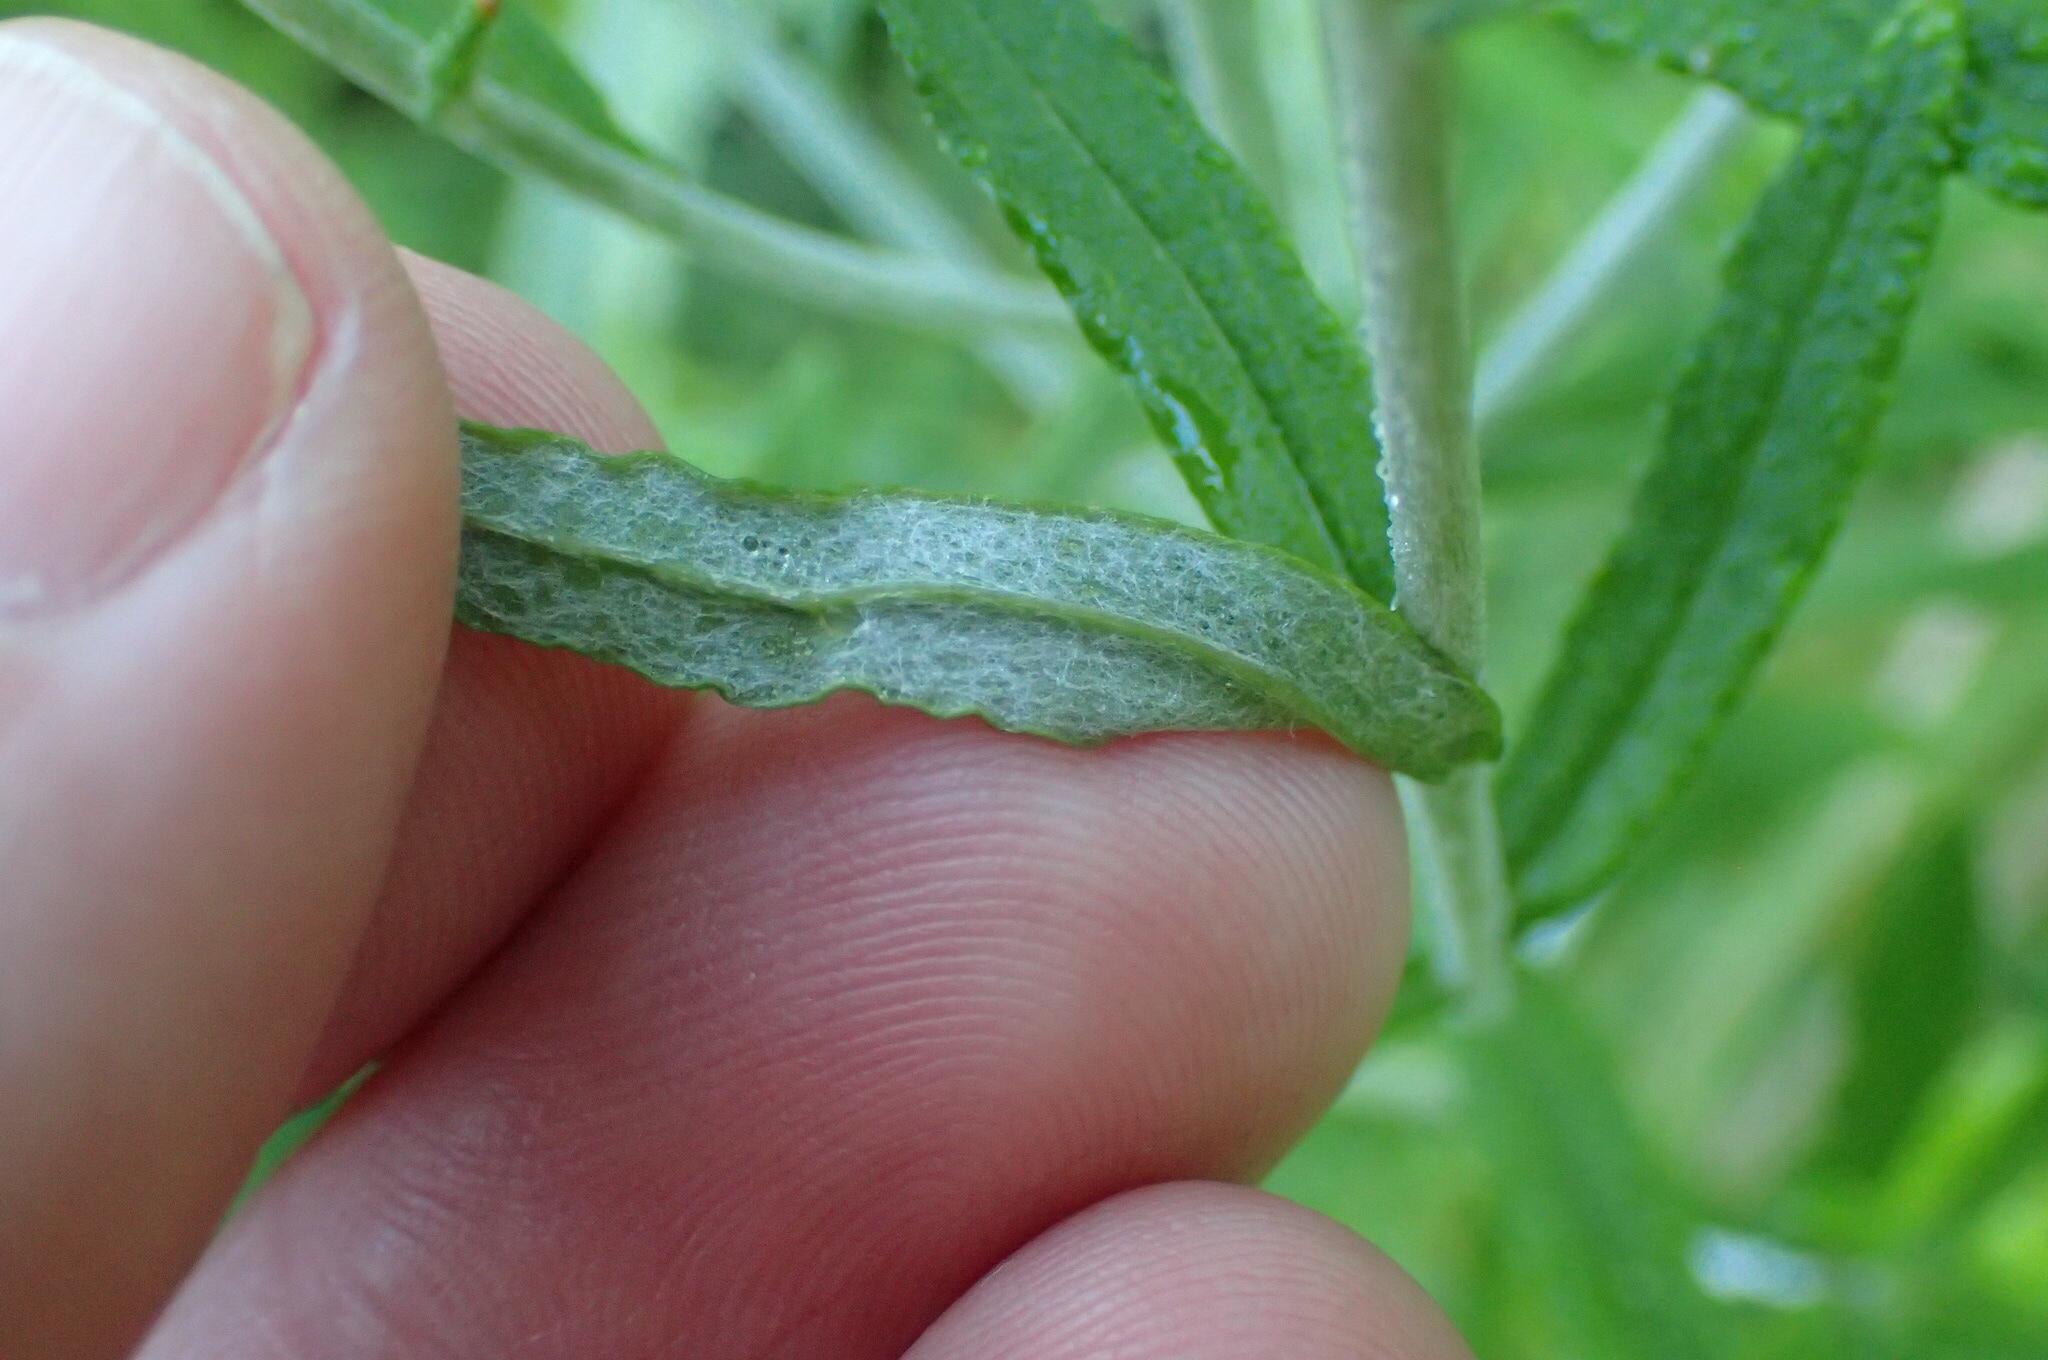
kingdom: Plantae
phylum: Tracheophyta
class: Magnoliopsida
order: Asterales
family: Asteraceae
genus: Pseudognaphalium
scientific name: Pseudognaphalium obtusifolium
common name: Eastern rabbit-tobacco
